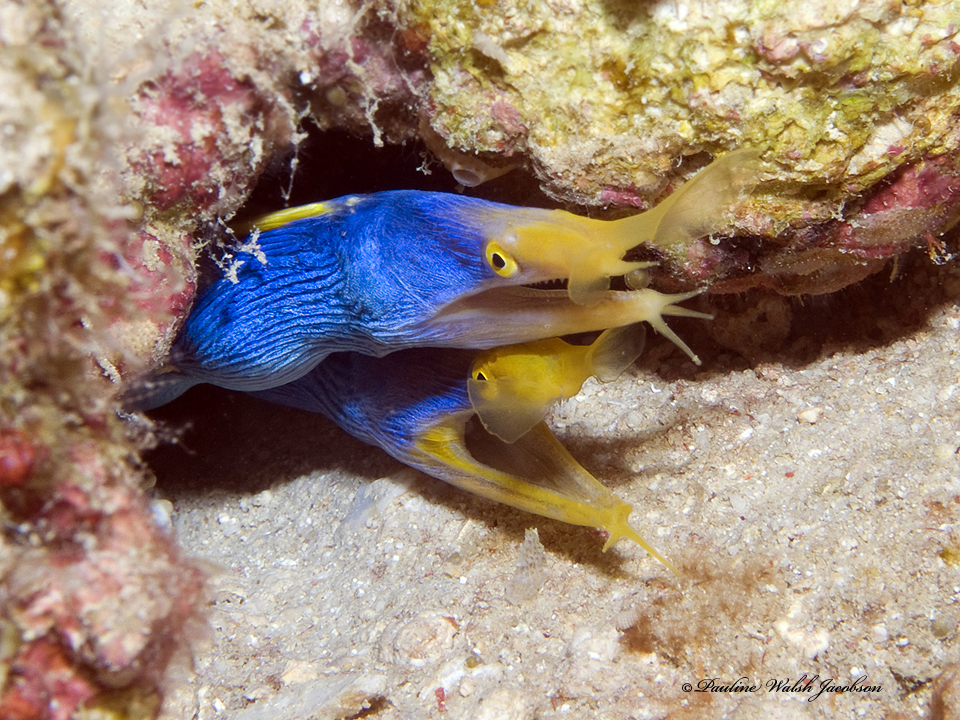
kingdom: Animalia
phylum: Chordata
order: Anguilliformes
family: Muraenidae
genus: Rhinomuraena
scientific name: Rhinomuraena quaesita
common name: Ribbon eel
